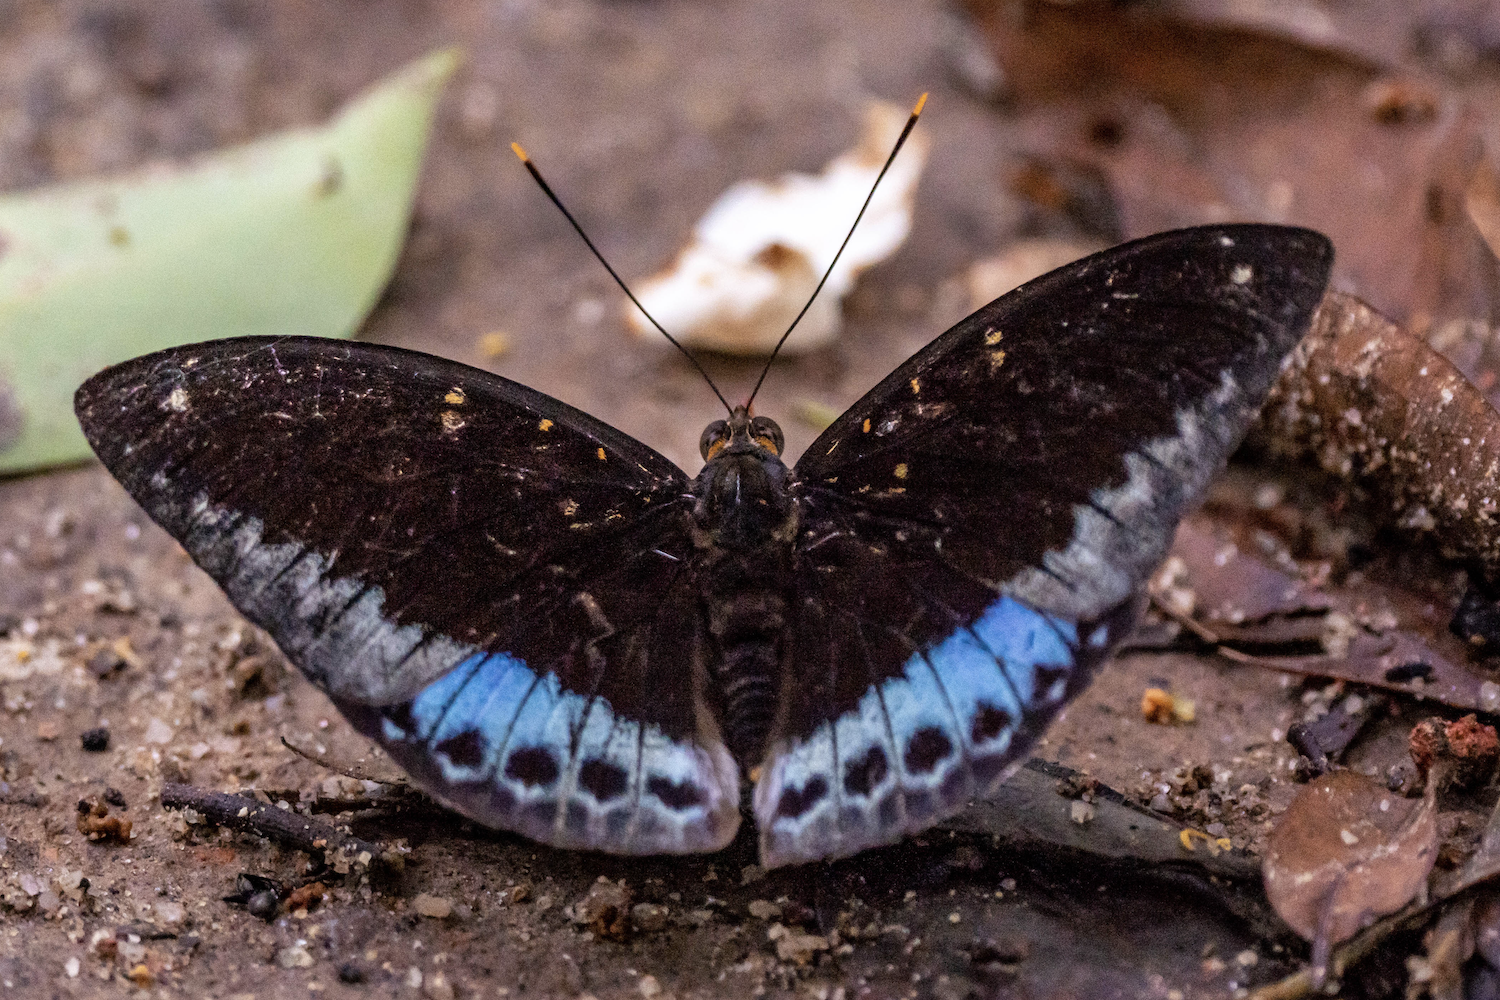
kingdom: Animalia
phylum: Arthropoda
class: Insecta
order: Lepidoptera
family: Nymphalidae
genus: Lexias
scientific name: Lexias pardalis
